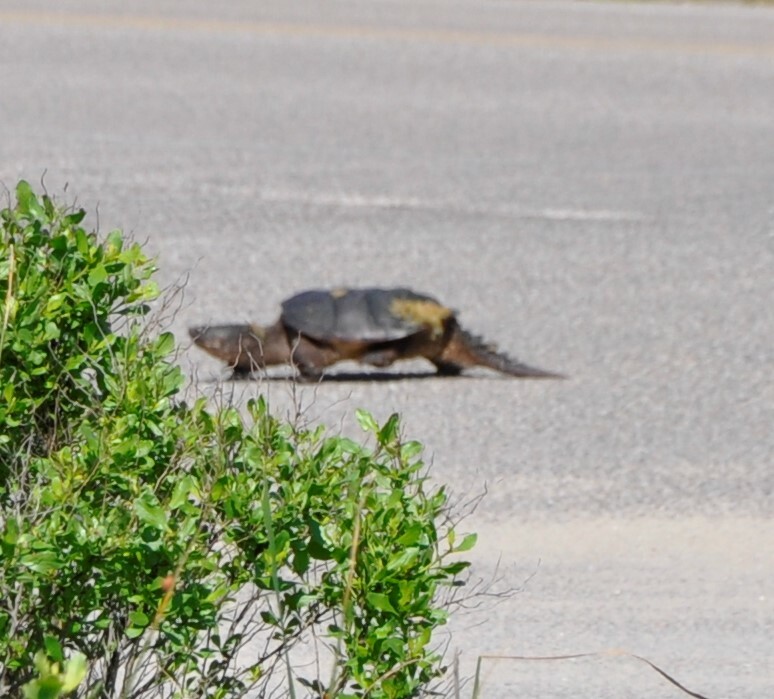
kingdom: Animalia
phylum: Chordata
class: Testudines
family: Chelydridae
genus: Chelydra
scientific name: Chelydra serpentina
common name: Common snapping turtle
